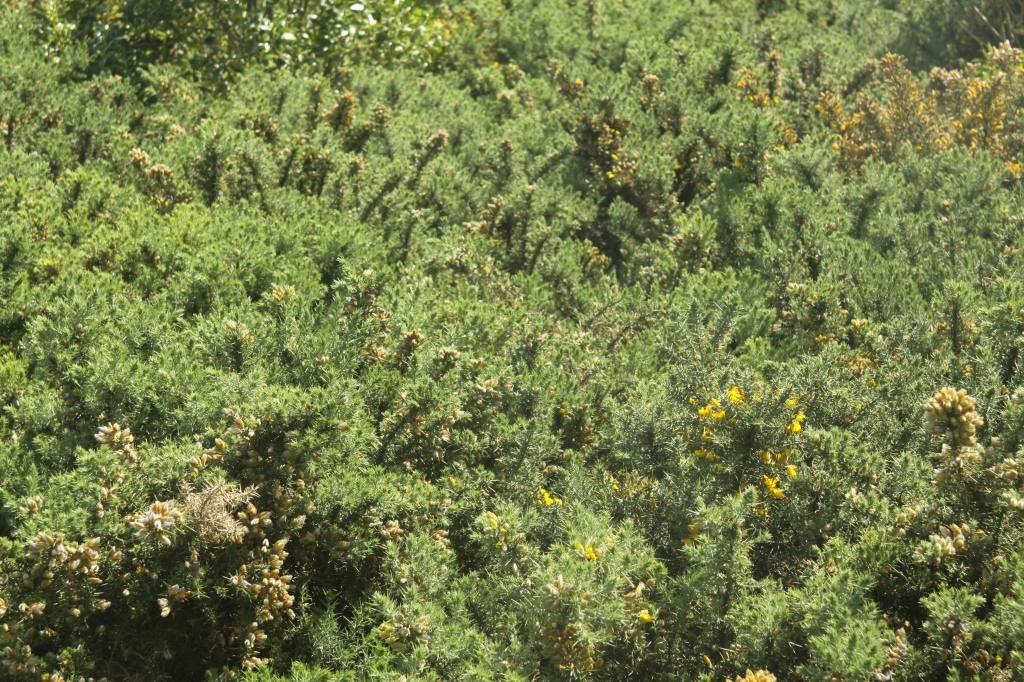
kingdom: Plantae
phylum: Tracheophyta
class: Magnoliopsida
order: Fabales
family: Fabaceae
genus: Ulex
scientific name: Ulex europaeus
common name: Common gorse
